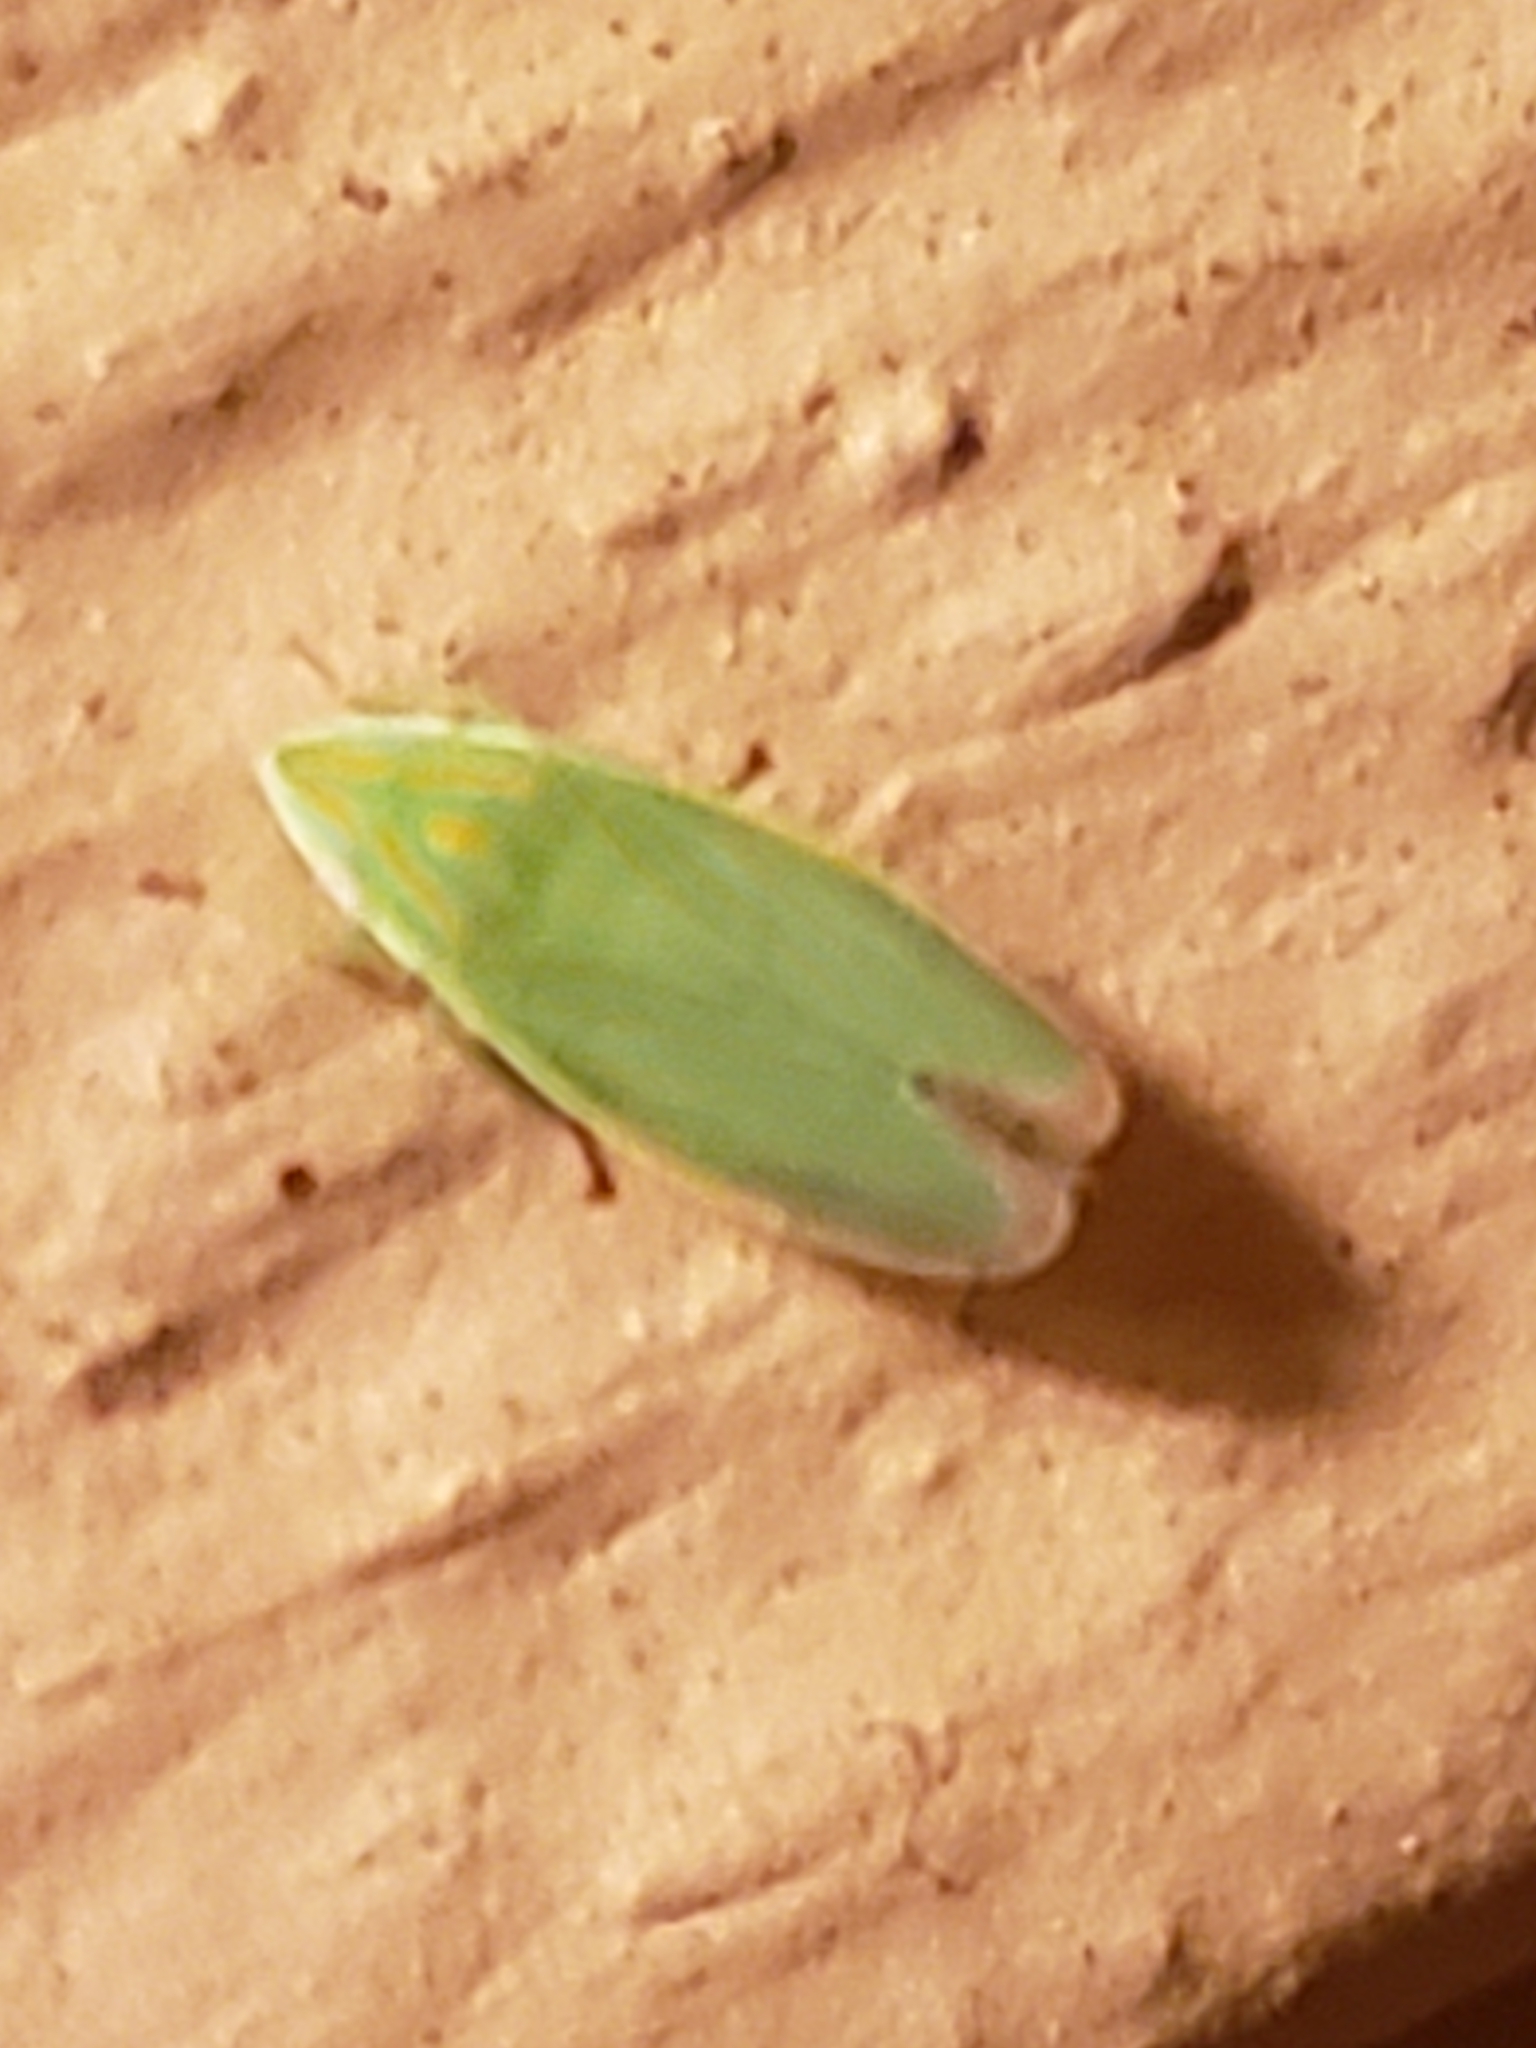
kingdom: Animalia
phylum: Arthropoda
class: Insecta
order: Hemiptera
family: Cicadellidae
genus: Spangbergiella
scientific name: Spangbergiella quadripunctata
